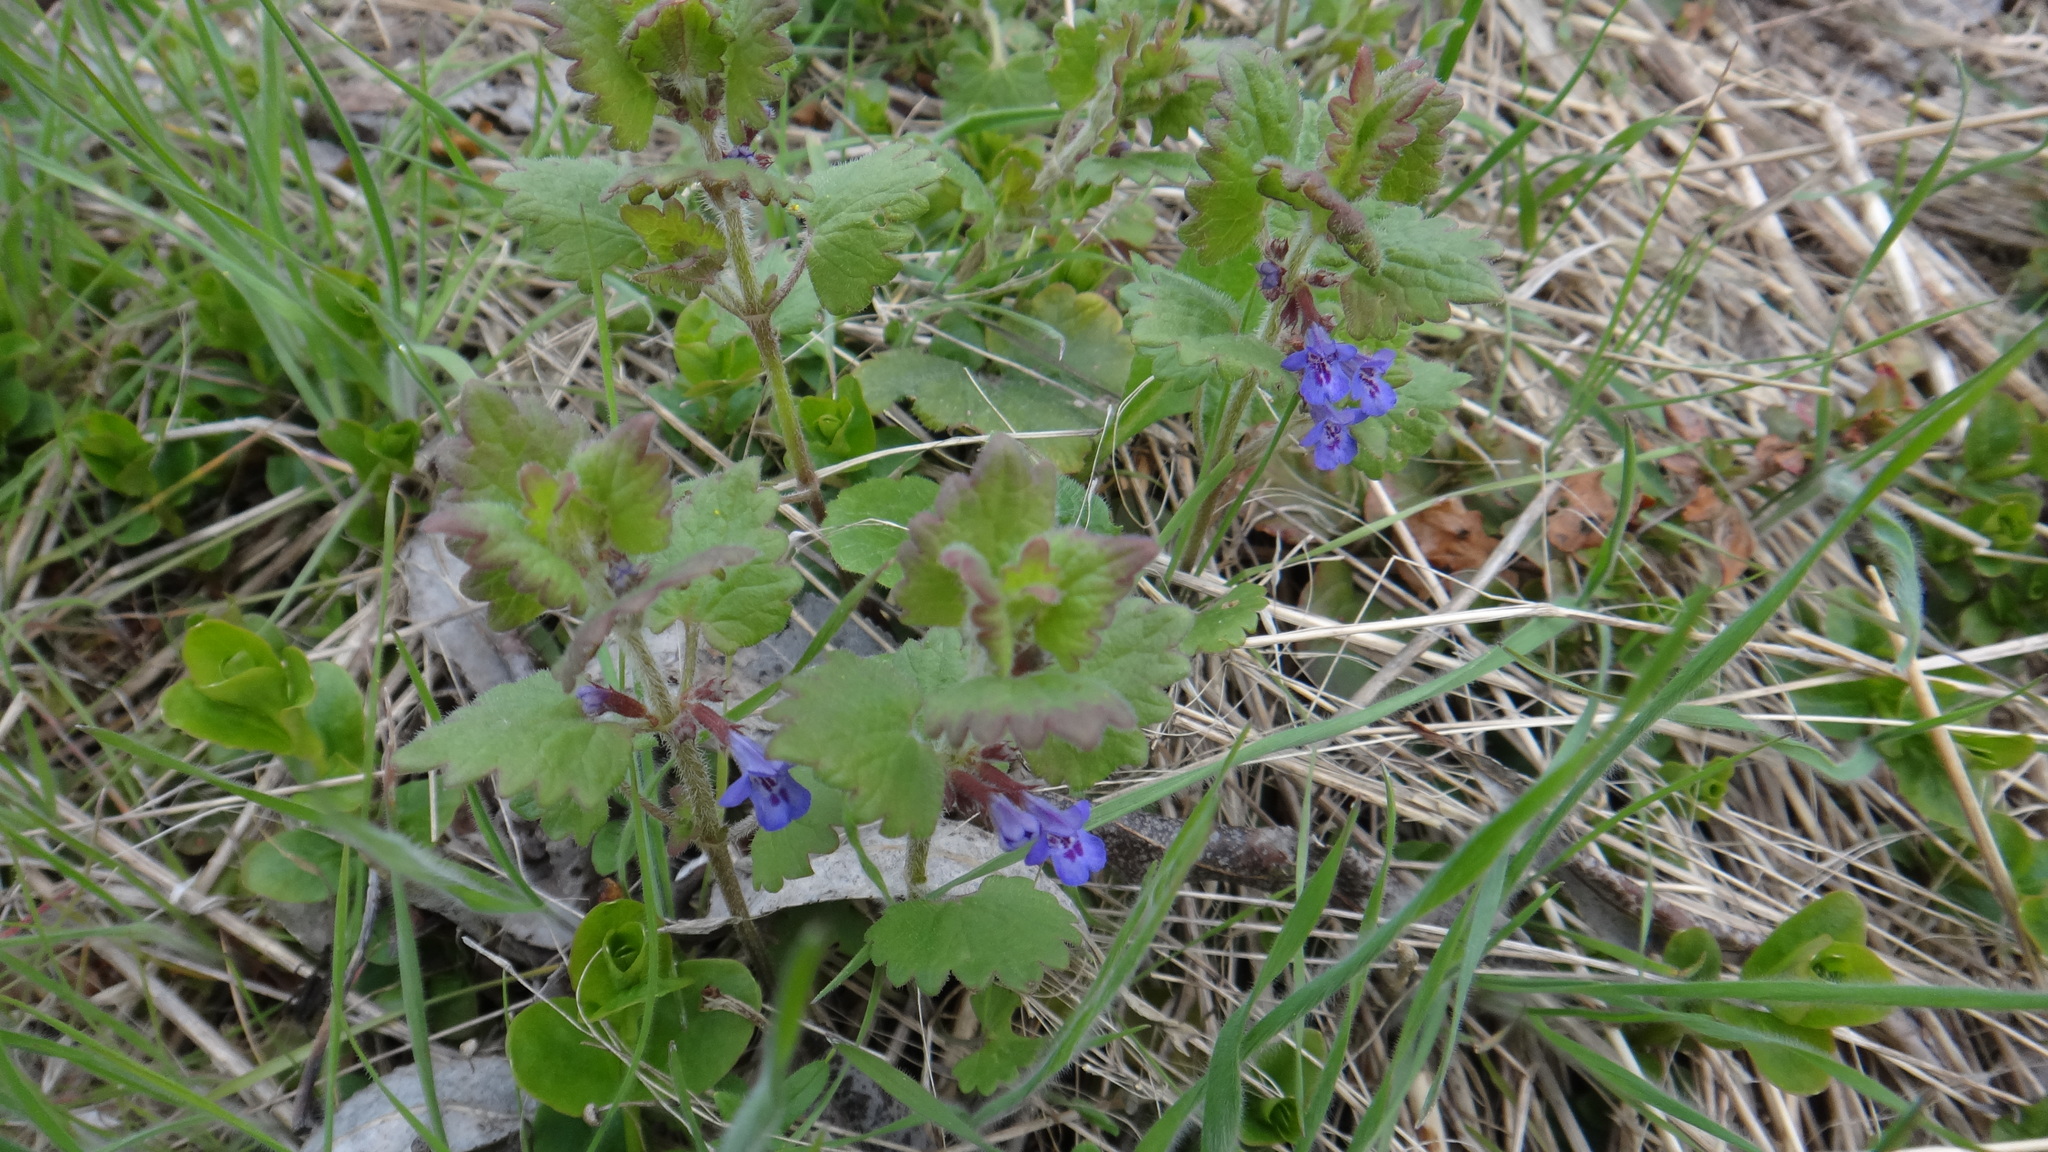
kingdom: Plantae
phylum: Tracheophyta
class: Magnoliopsida
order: Lamiales
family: Lamiaceae
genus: Glechoma
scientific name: Glechoma hederacea
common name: Ground ivy
